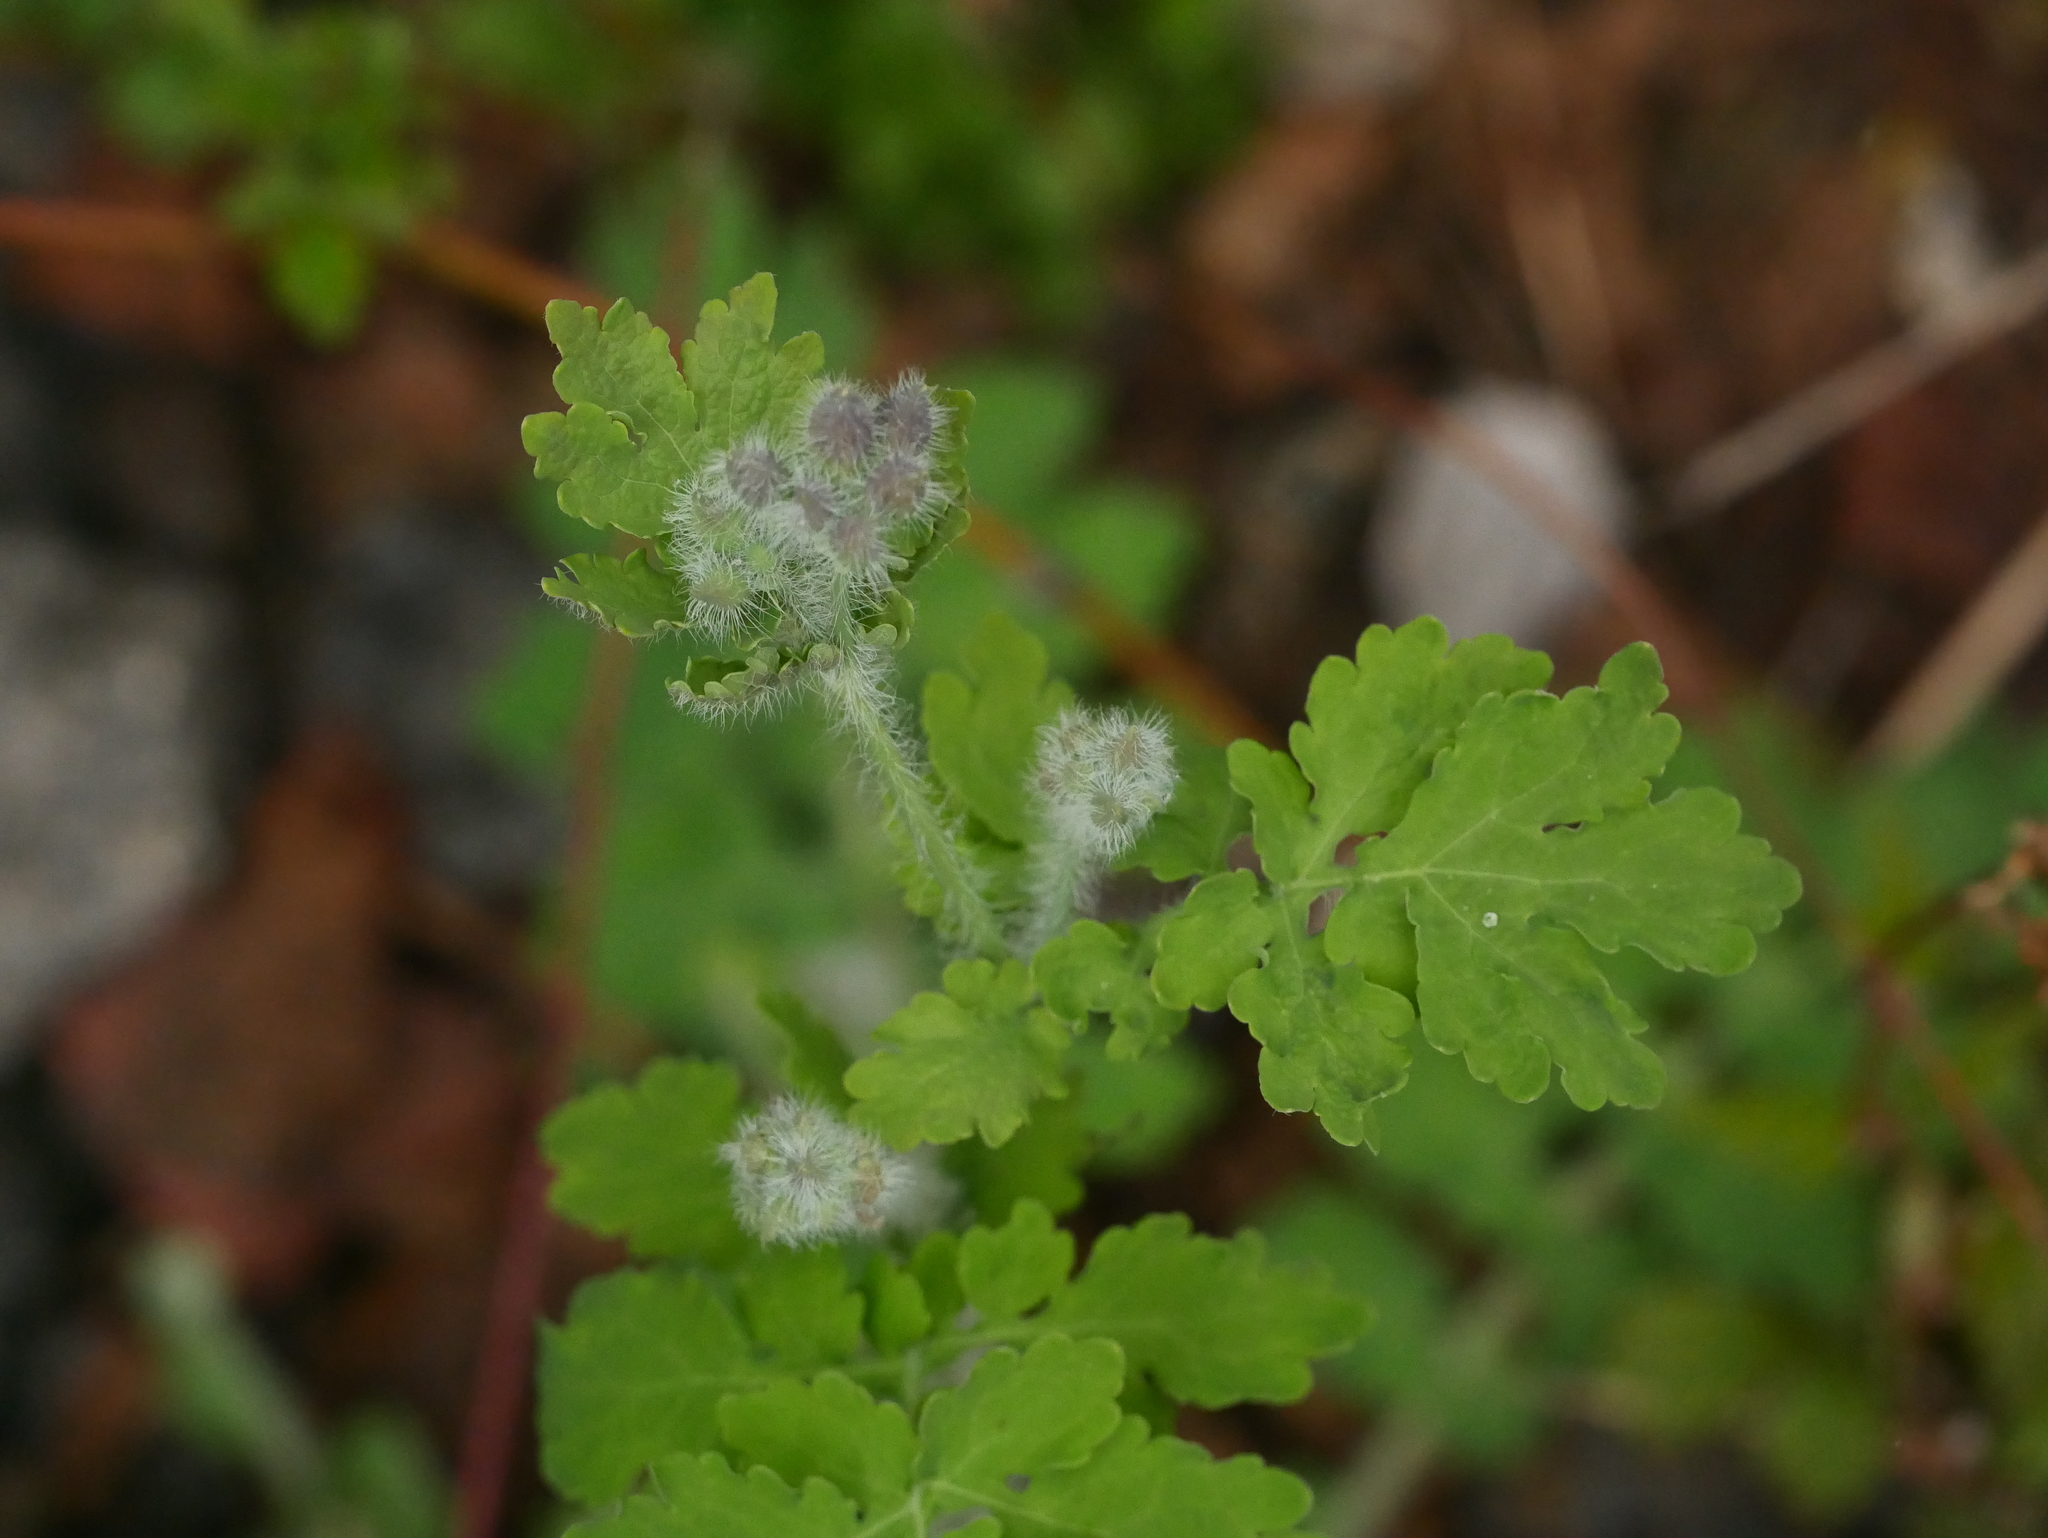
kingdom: Plantae
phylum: Tracheophyta
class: Magnoliopsida
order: Ranunculales
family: Papaveraceae
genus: Chelidonium
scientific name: Chelidonium majus
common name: Greater celandine
